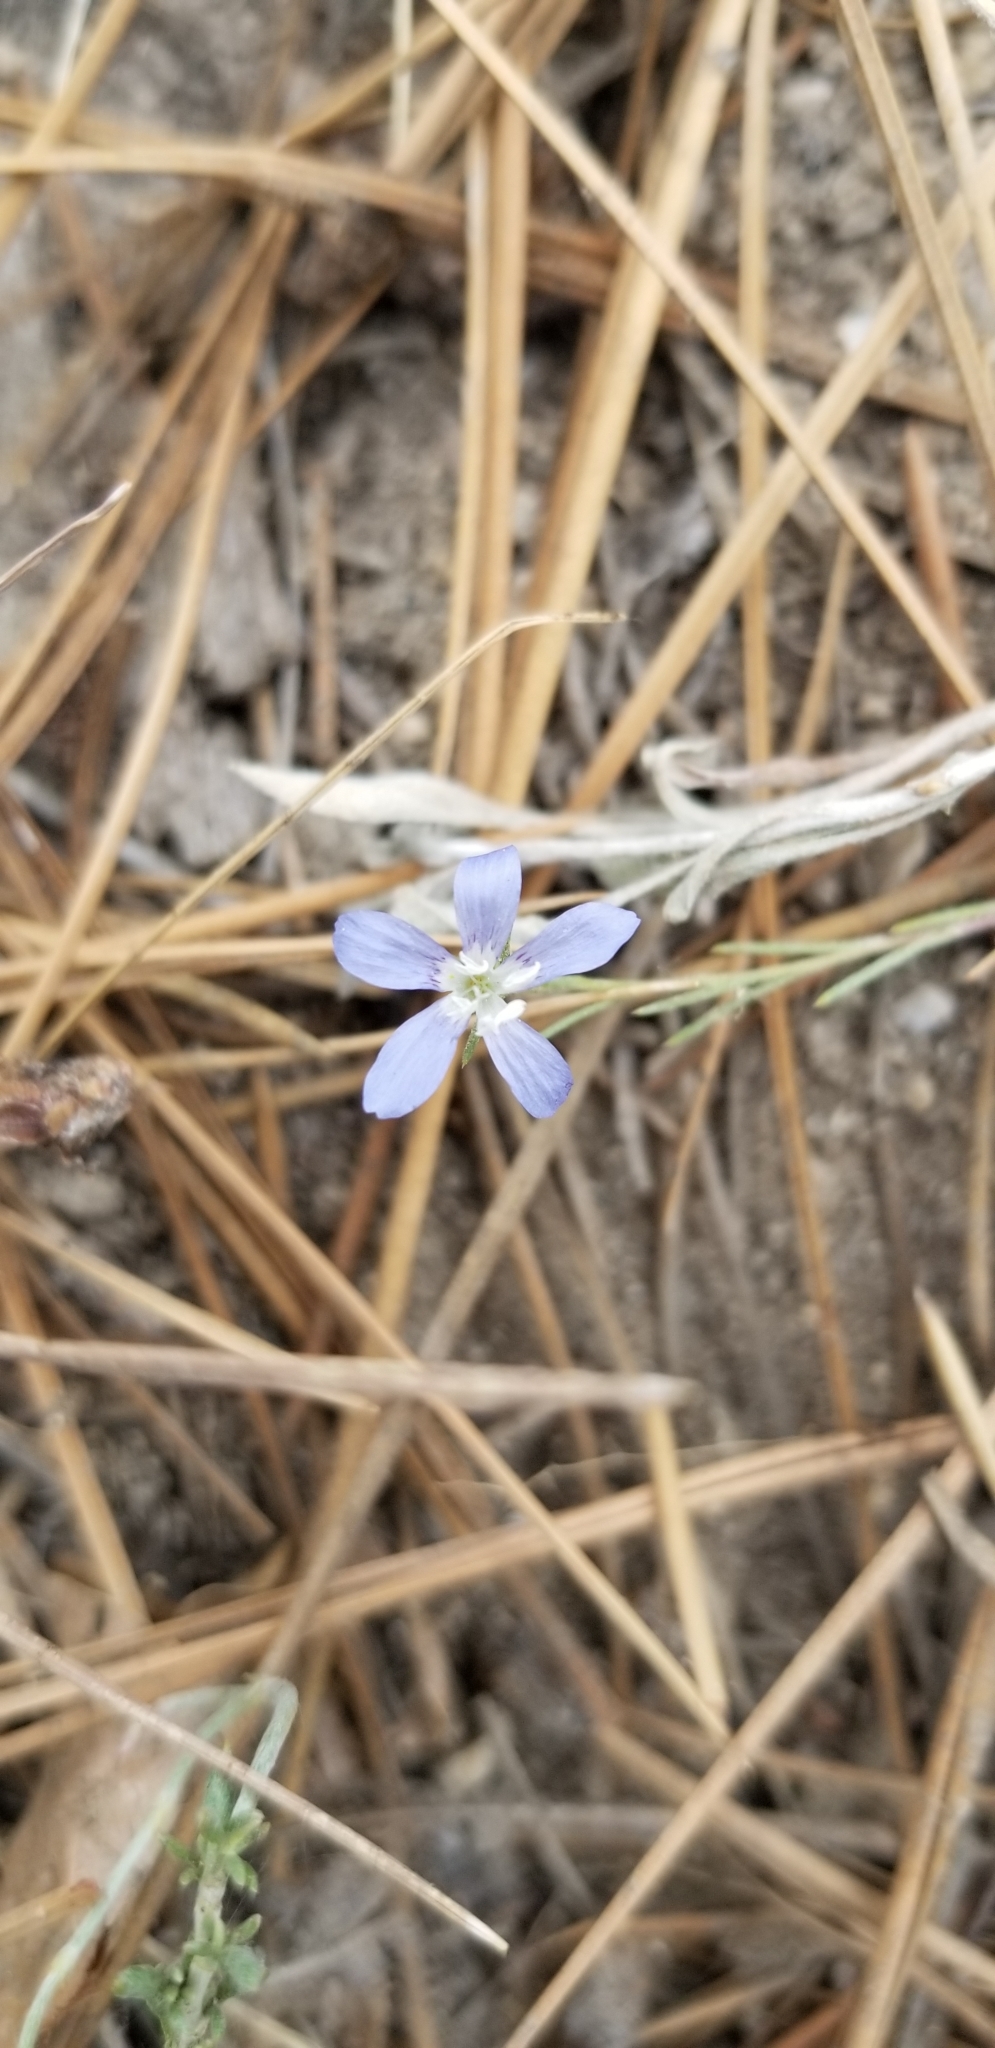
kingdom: Plantae
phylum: Tracheophyta
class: Magnoliopsida
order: Ericales
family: Polemoniaceae
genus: Eriastrum
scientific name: Eriastrum sapphirinum
